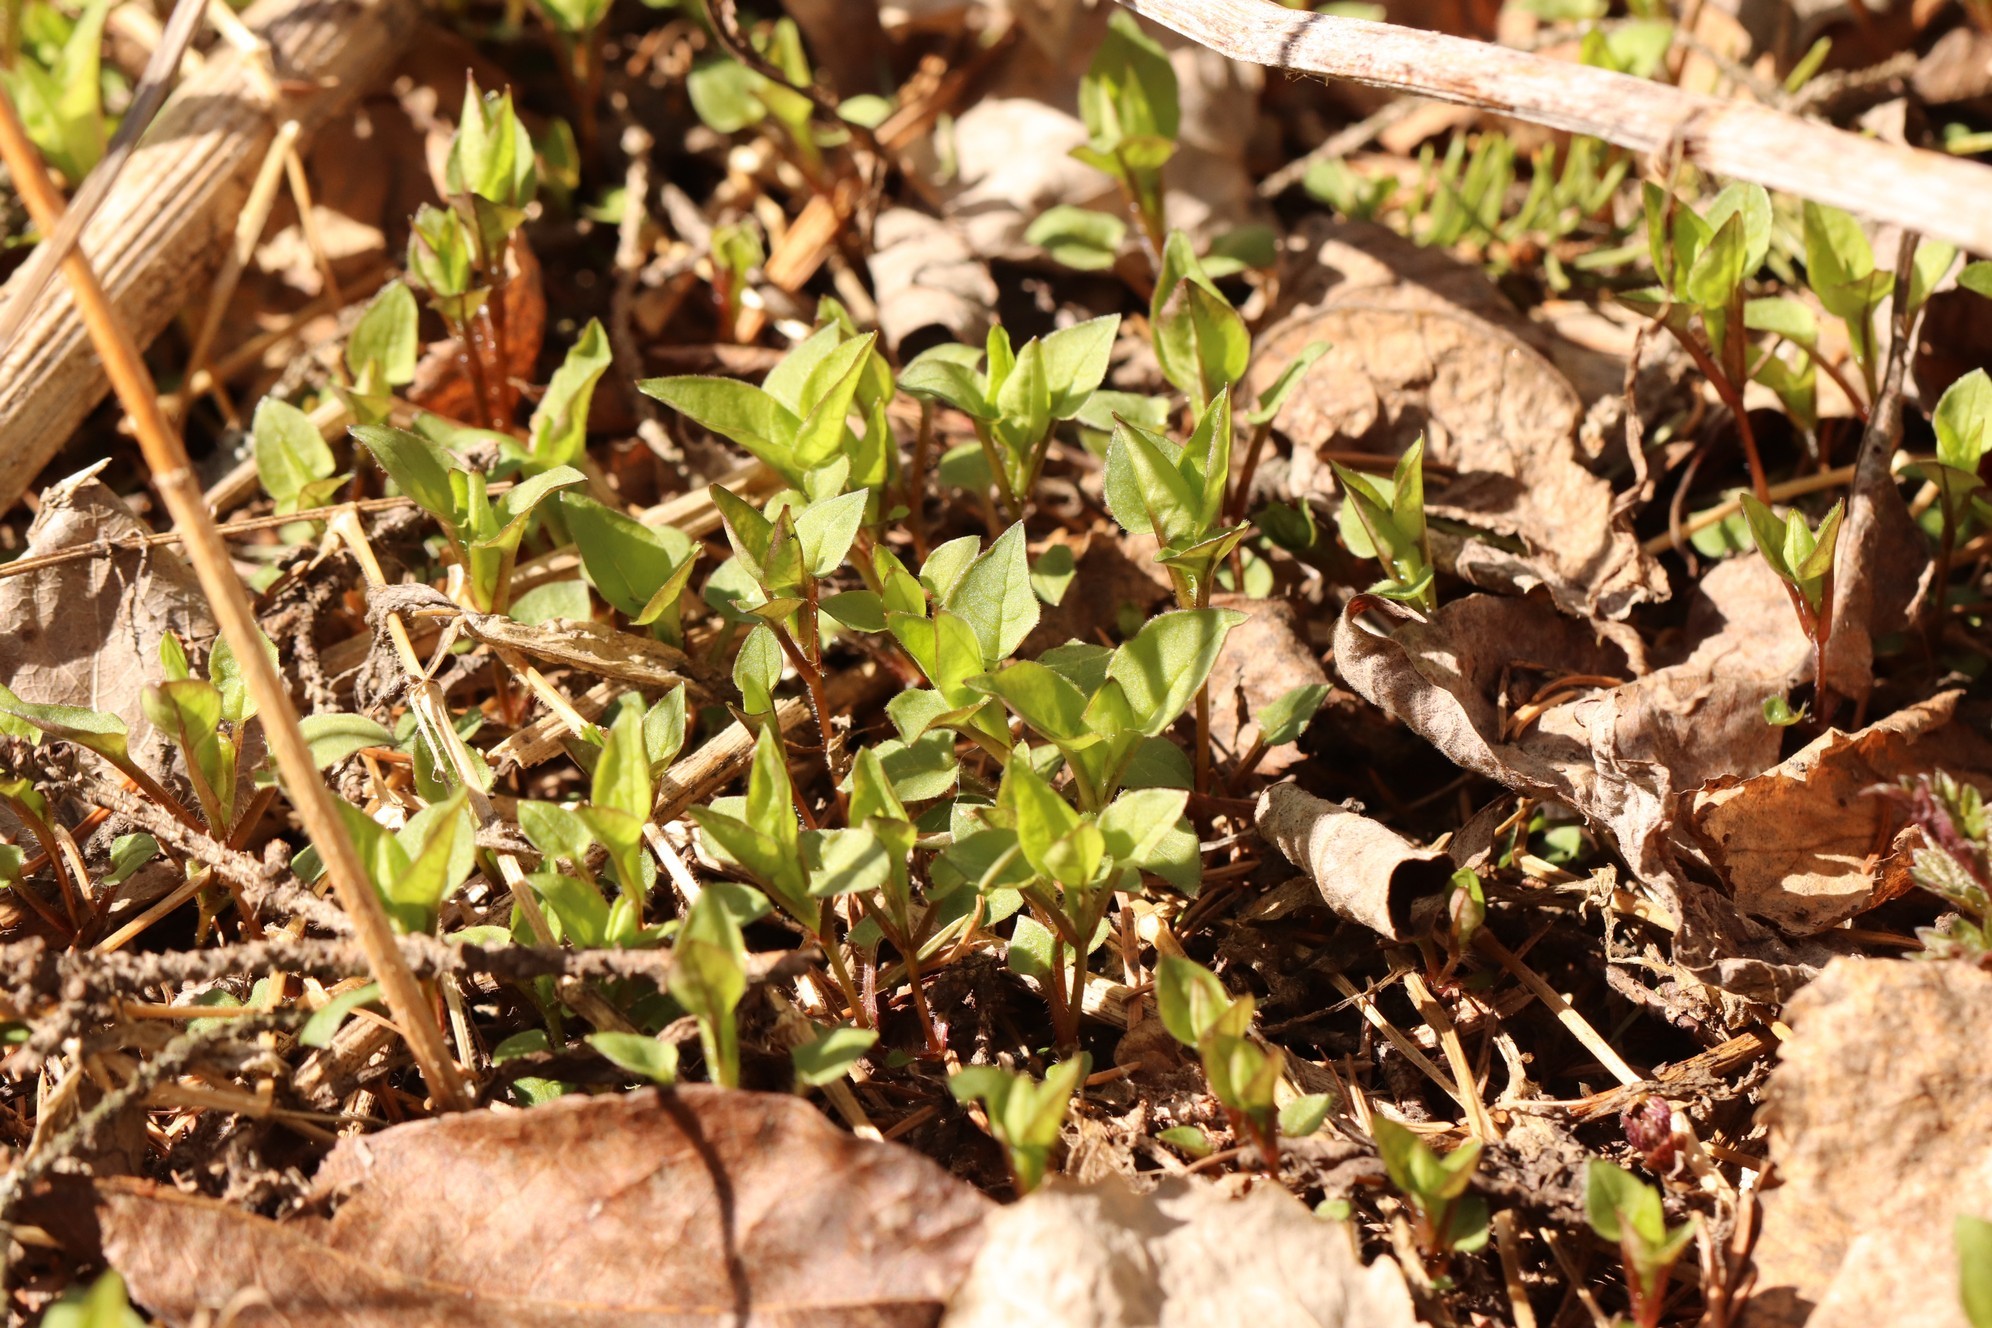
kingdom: Plantae
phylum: Tracheophyta
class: Magnoliopsida
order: Caryophyllales
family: Caryophyllaceae
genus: Stellaria
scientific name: Stellaria bungeana
